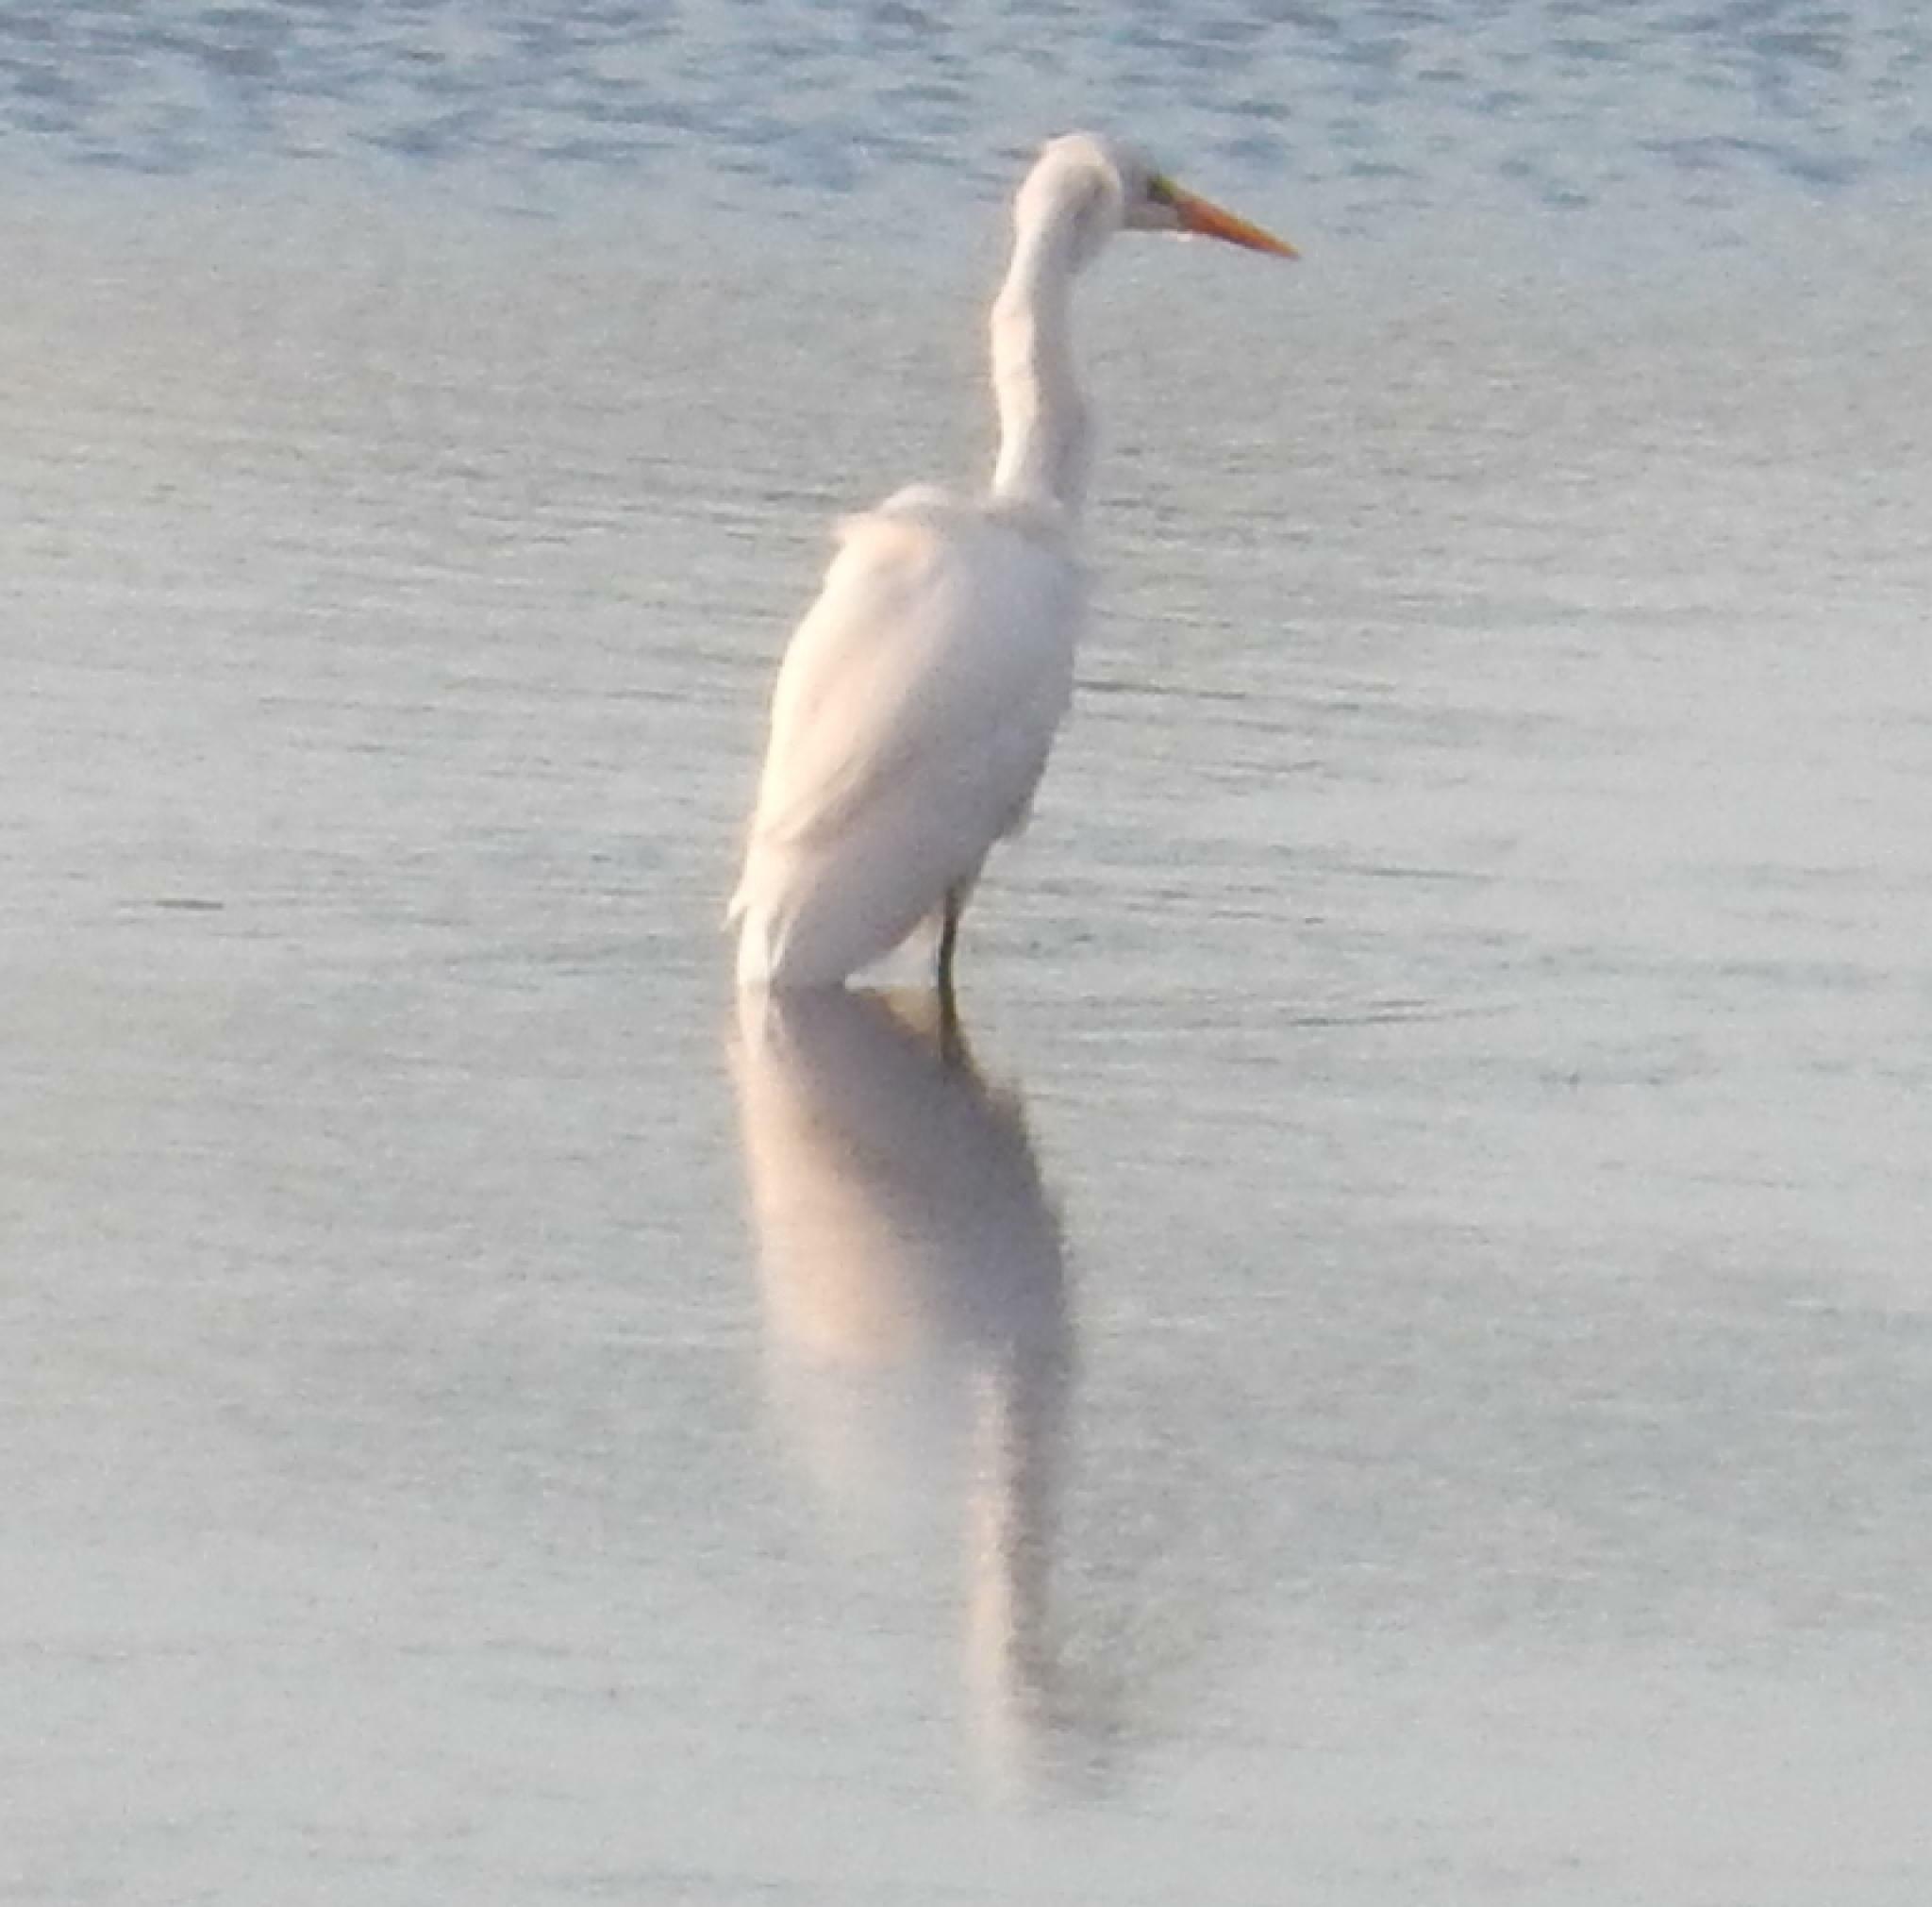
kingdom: Animalia
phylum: Chordata
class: Aves
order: Pelecaniformes
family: Ardeidae
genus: Ardea
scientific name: Ardea alba
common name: Great egret
